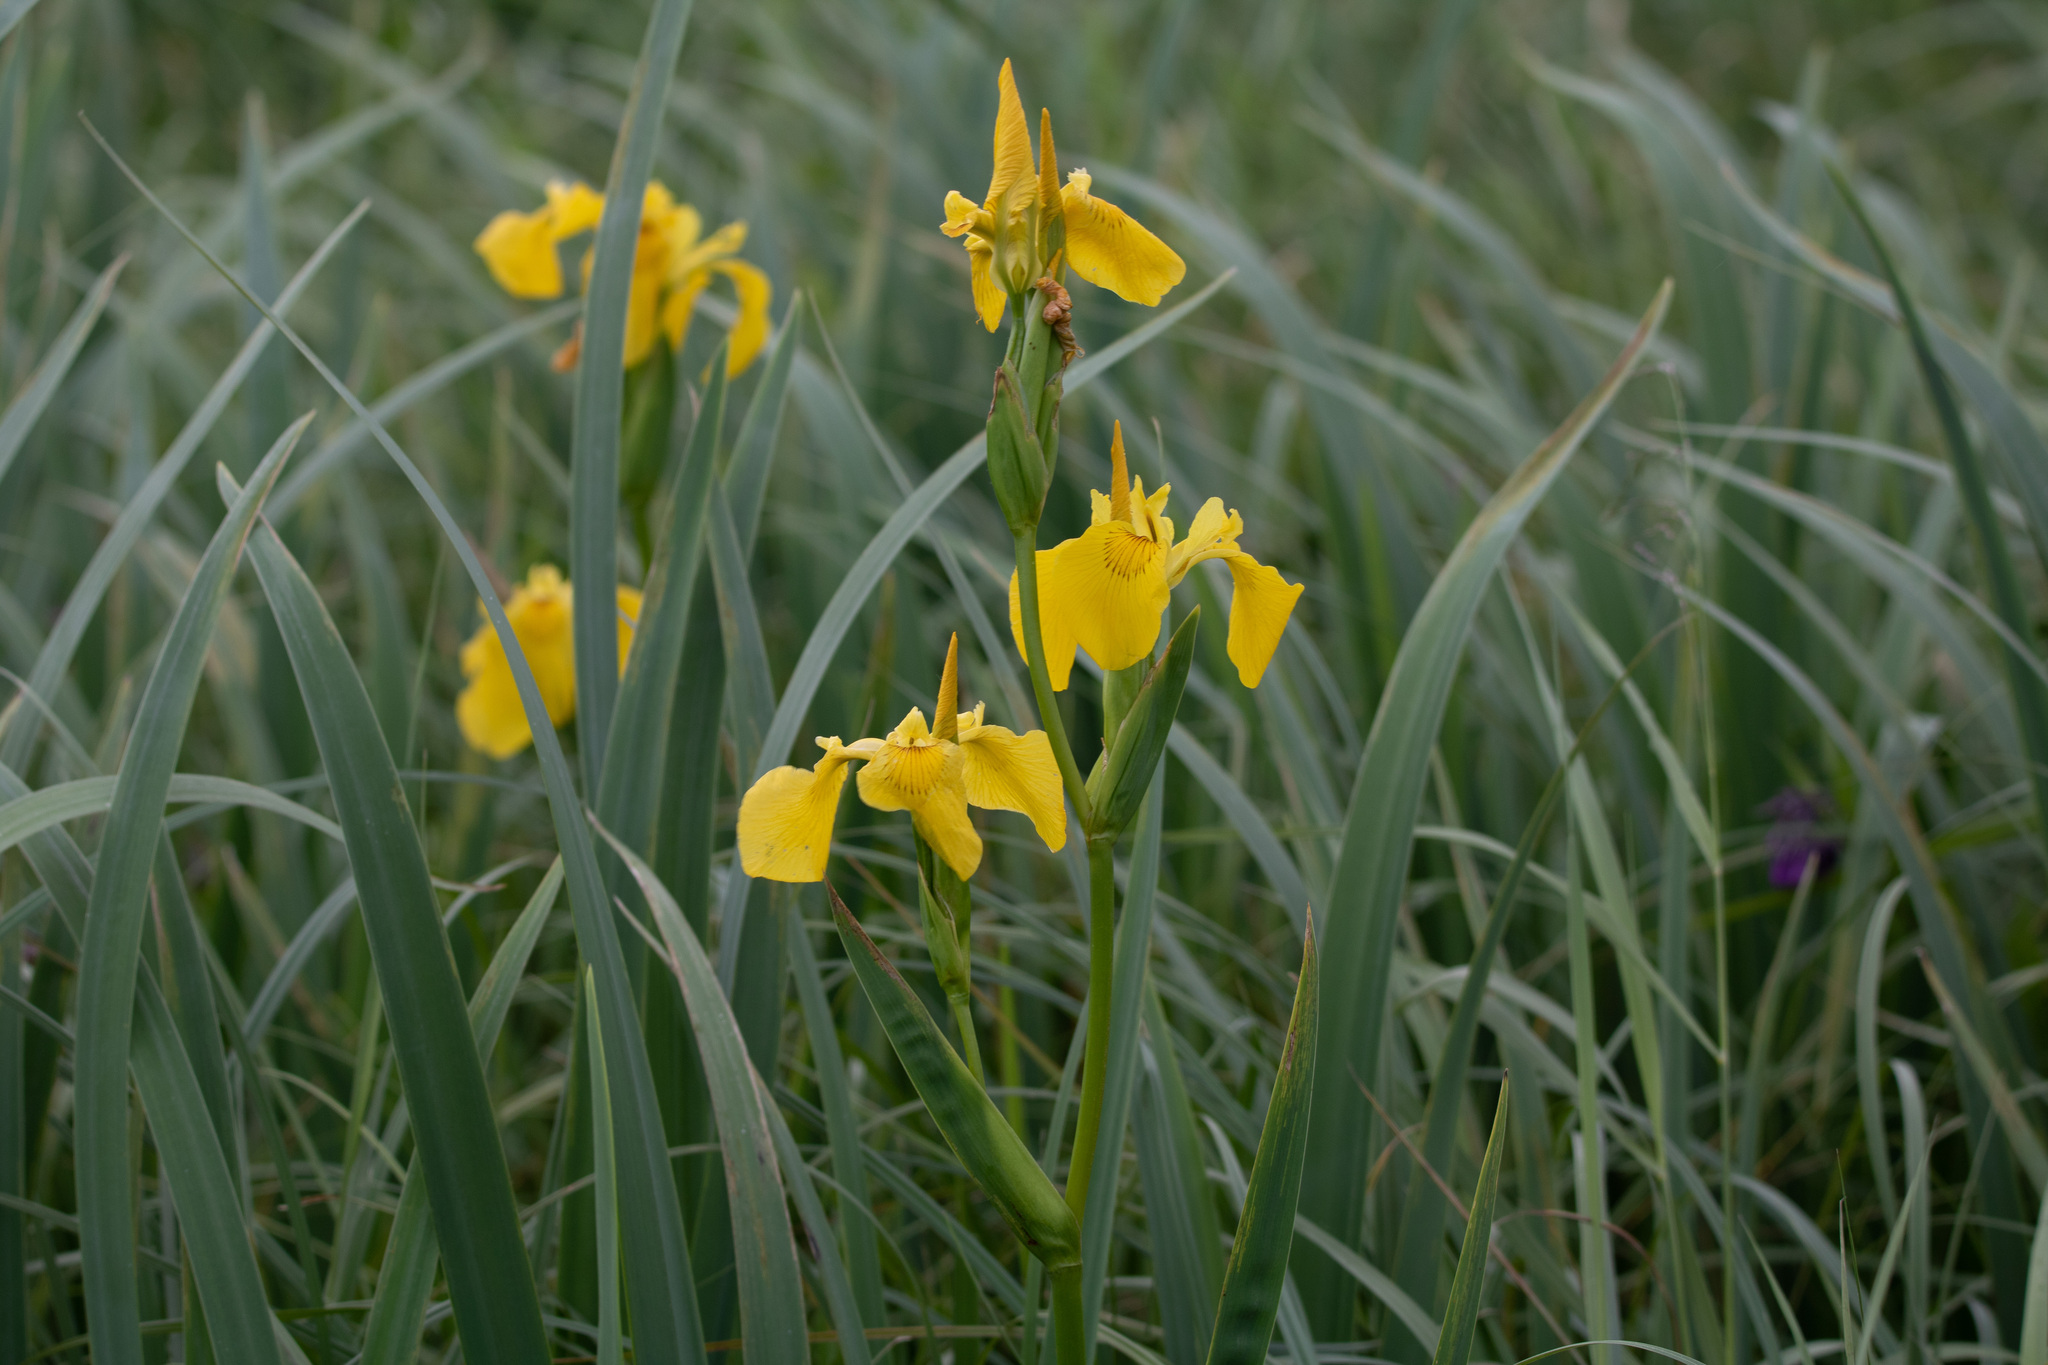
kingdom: Plantae
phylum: Tracheophyta
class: Liliopsida
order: Asparagales
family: Iridaceae
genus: Iris
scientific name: Iris pseudacorus
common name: Yellow flag
